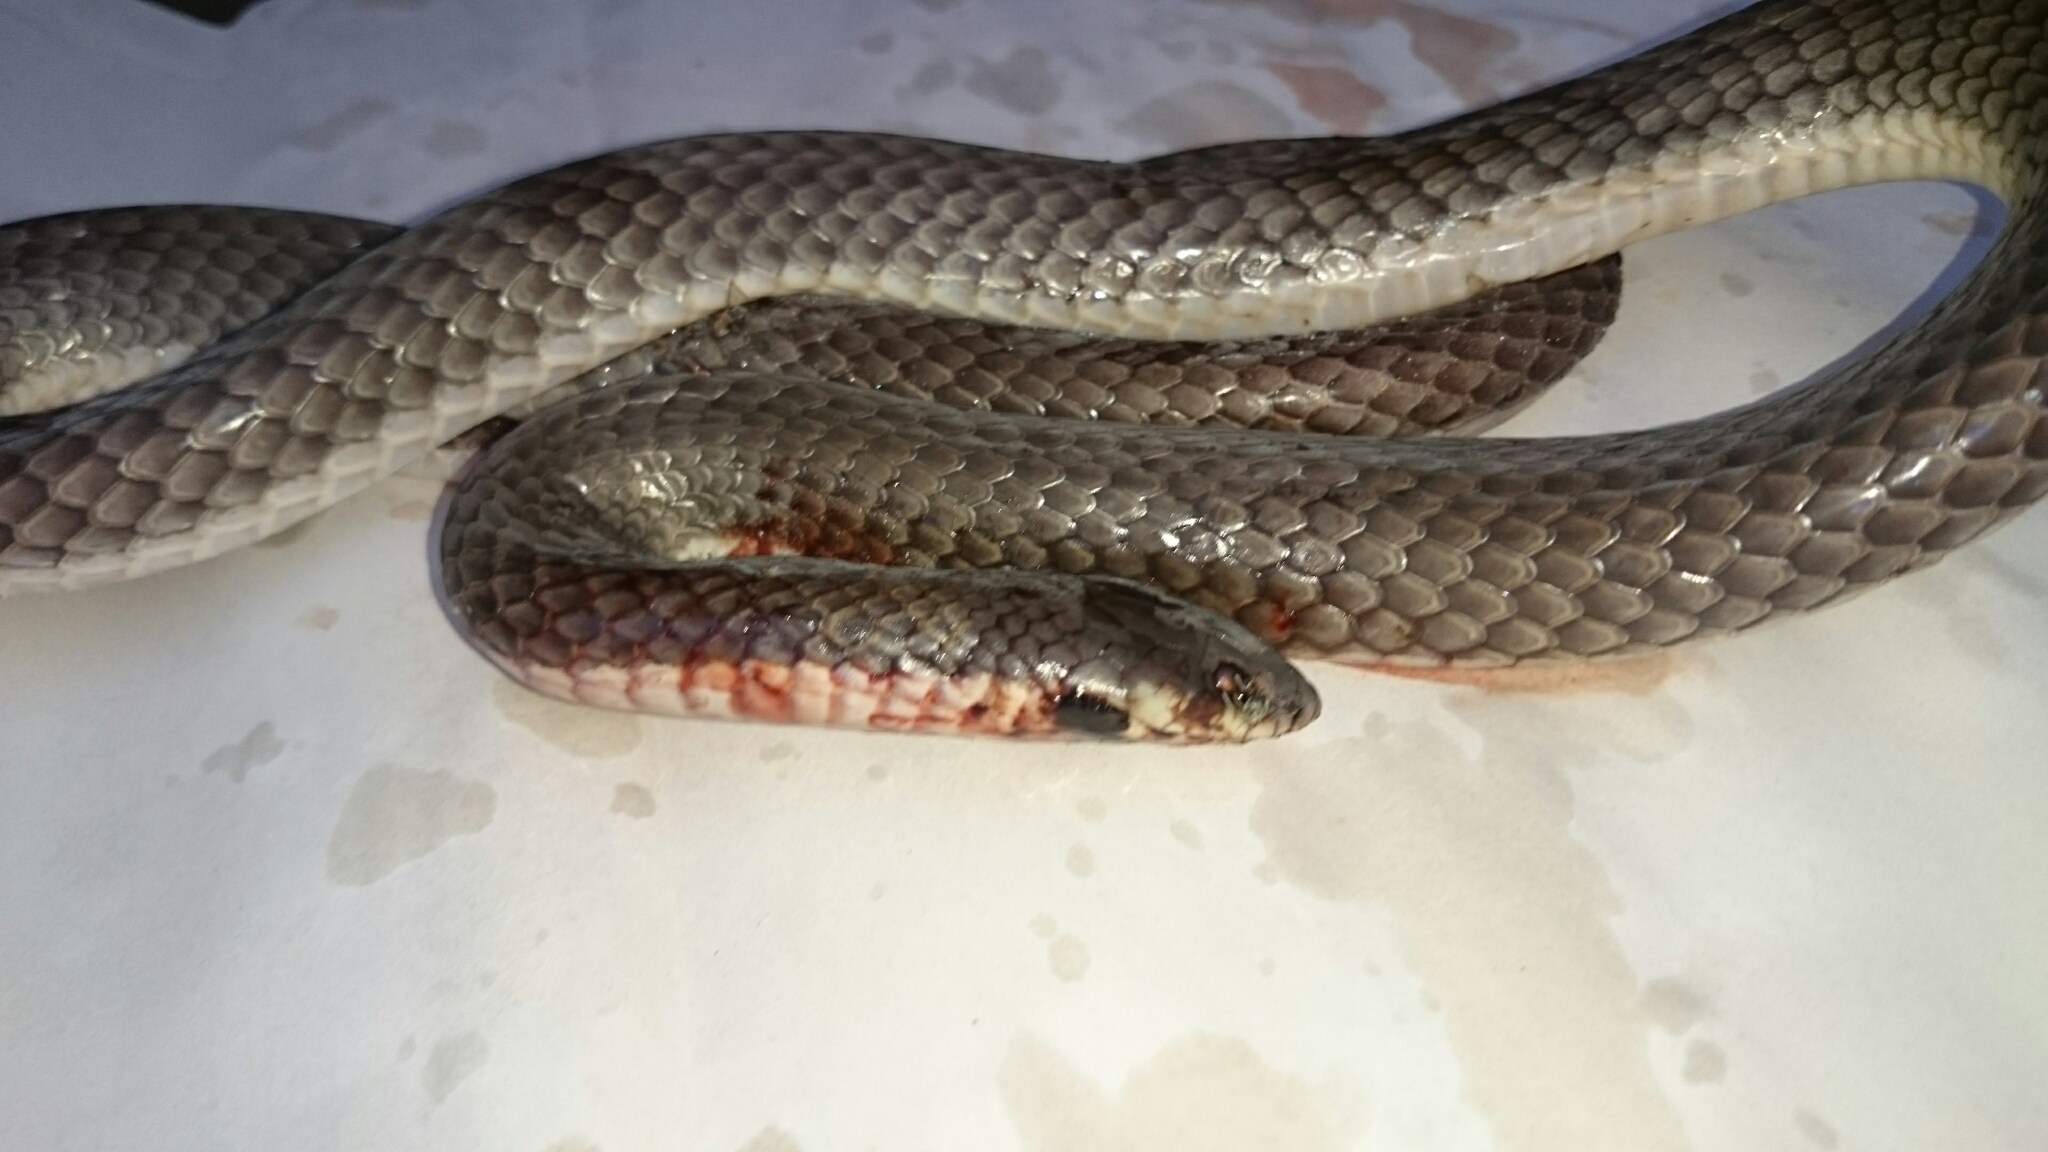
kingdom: Animalia
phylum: Chordata
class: Squamata
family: Elapidae
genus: Elapsoidea
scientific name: Elapsoidea sundevallii
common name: Sundevall's garter snake
